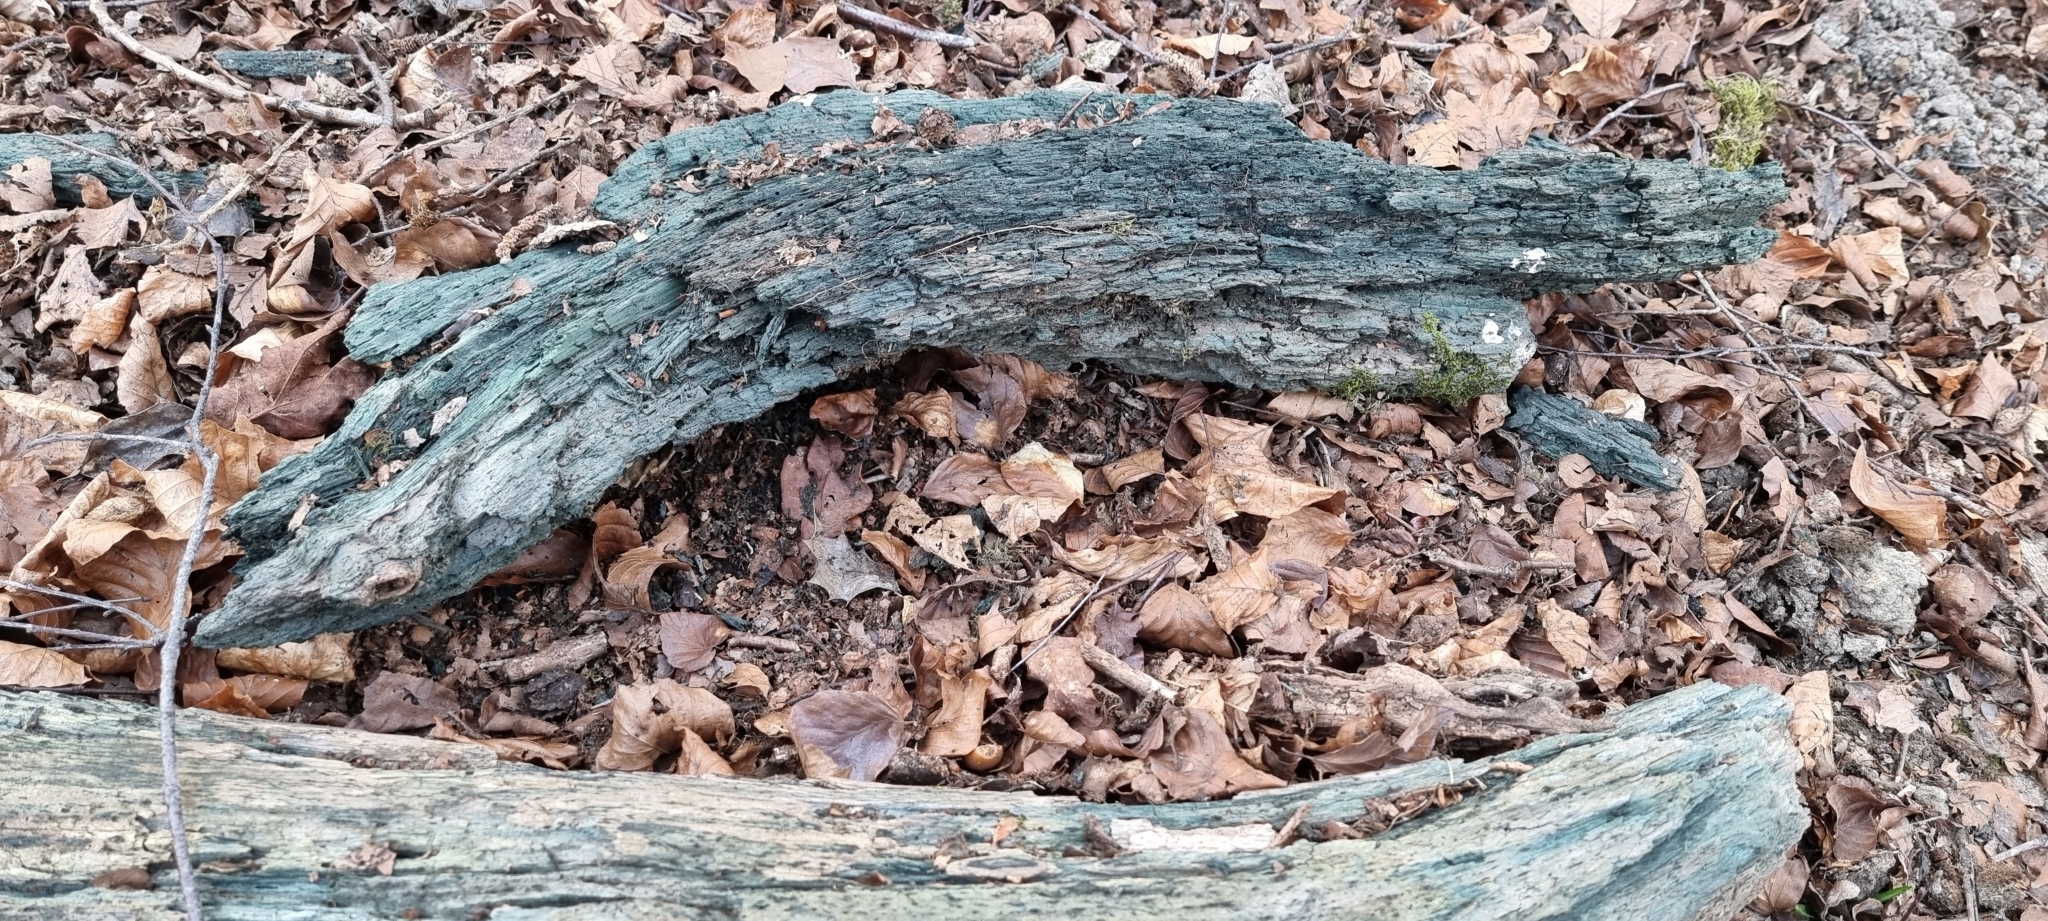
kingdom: Fungi
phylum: Ascomycota
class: Leotiomycetes
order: Helotiales
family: Chlorociboriaceae
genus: Chlorociboria
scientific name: Chlorociboria
